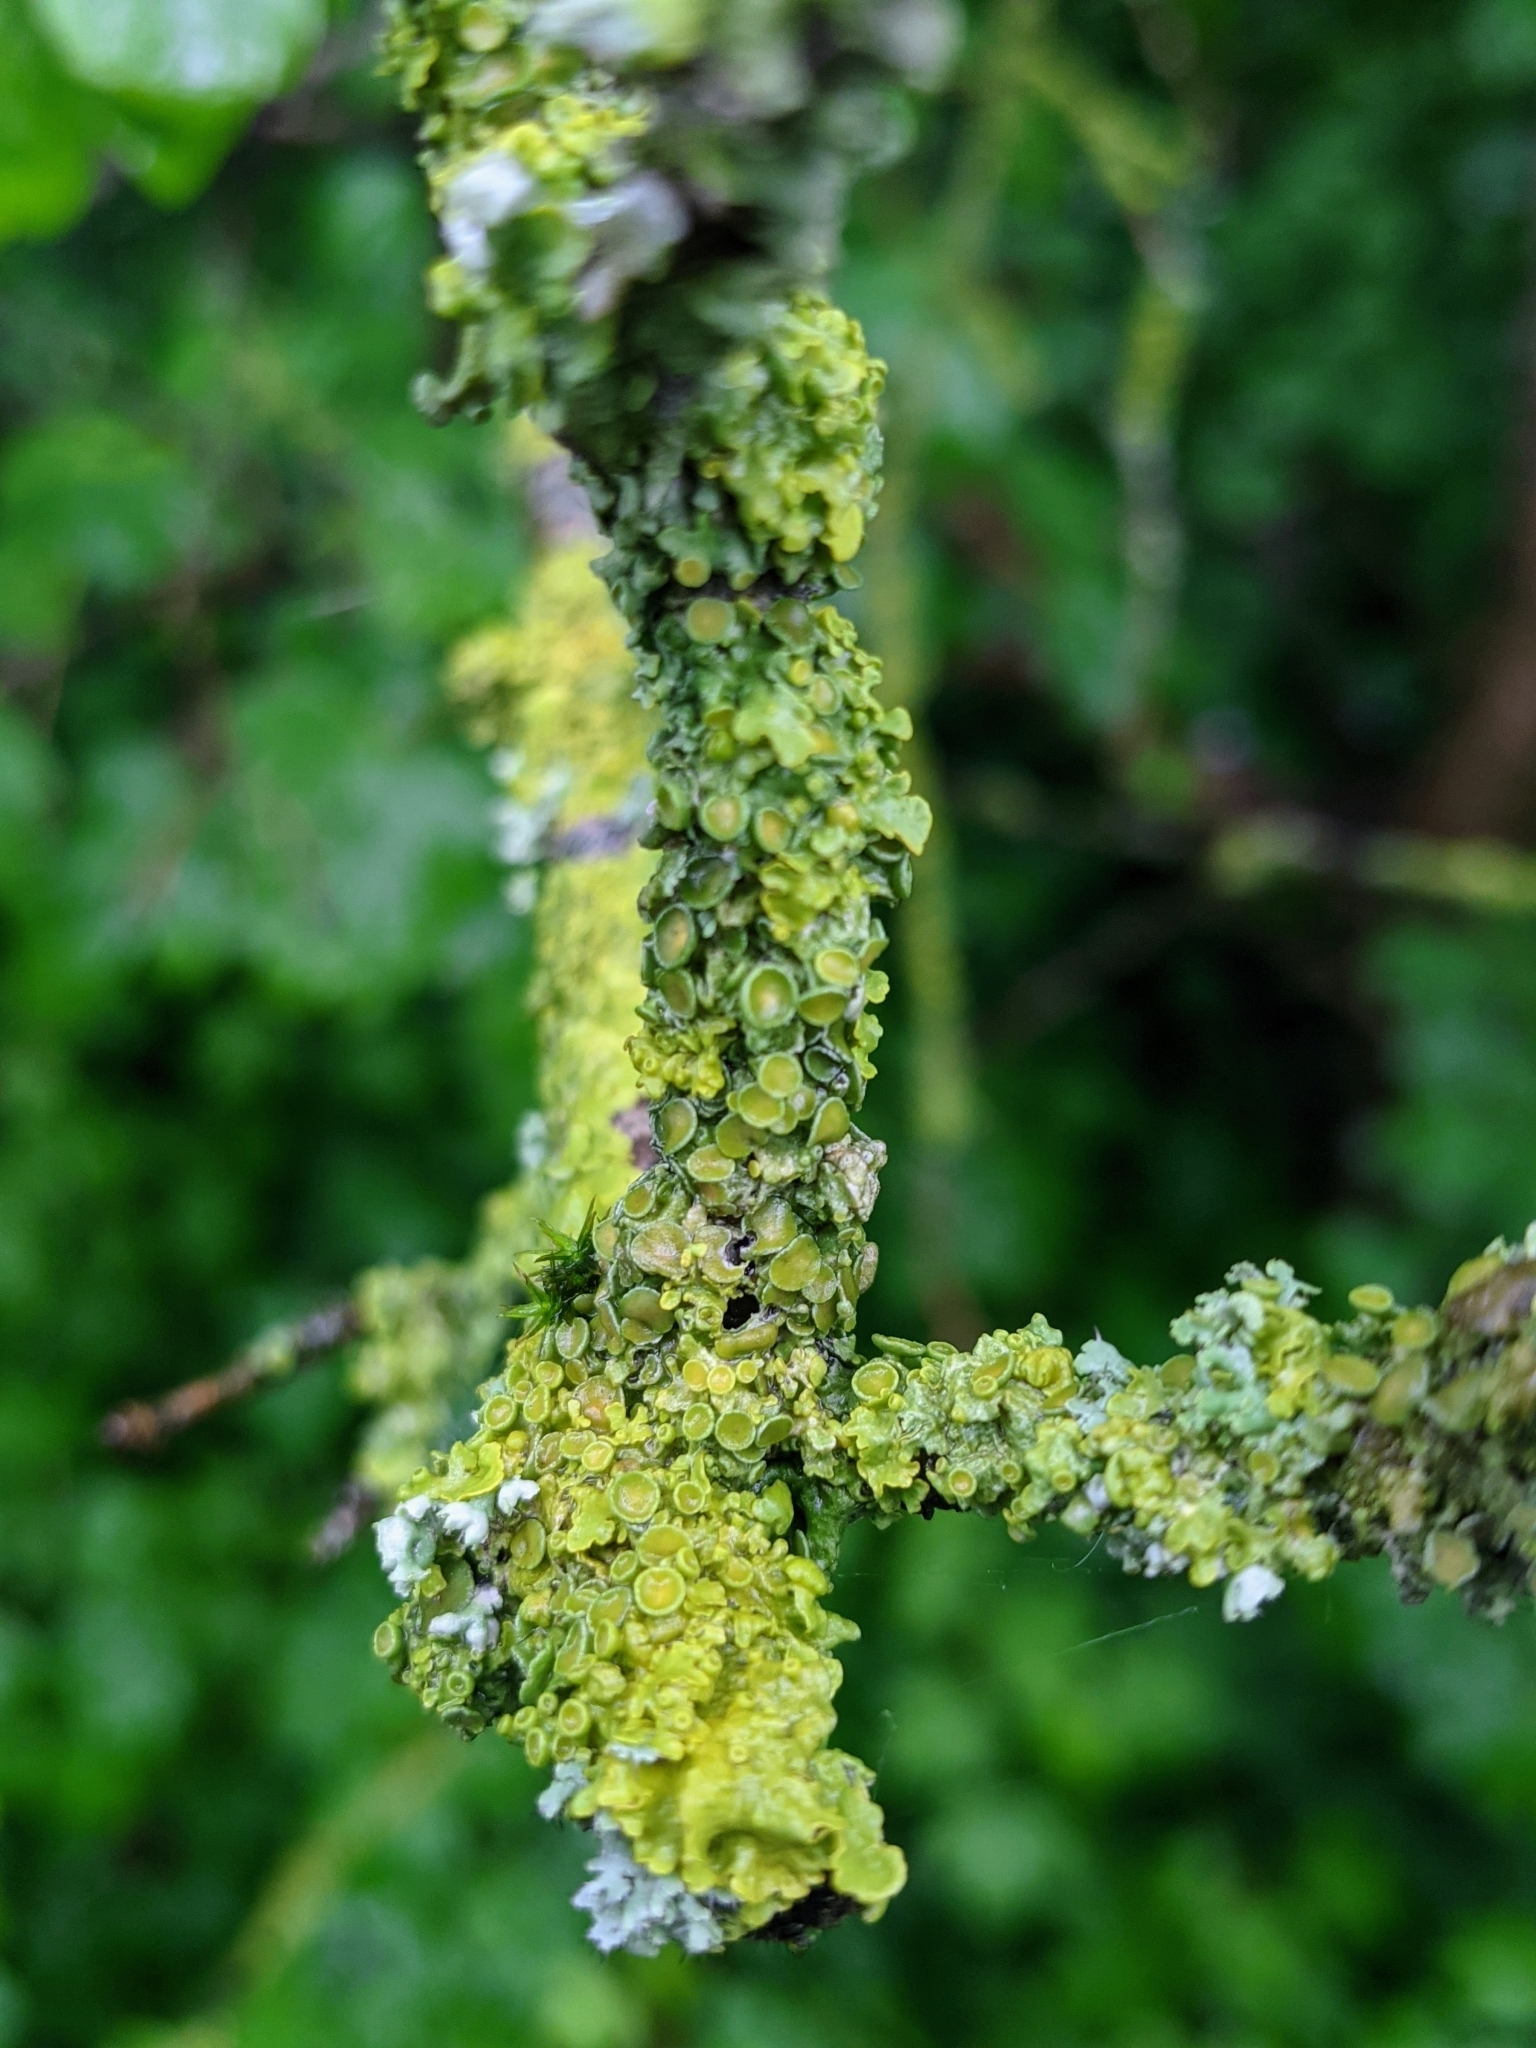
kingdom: Fungi
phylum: Ascomycota
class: Lecanoromycetes
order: Teloschistales
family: Teloschistaceae
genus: Xanthoria
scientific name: Xanthoria parietina
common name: Common orange lichen
